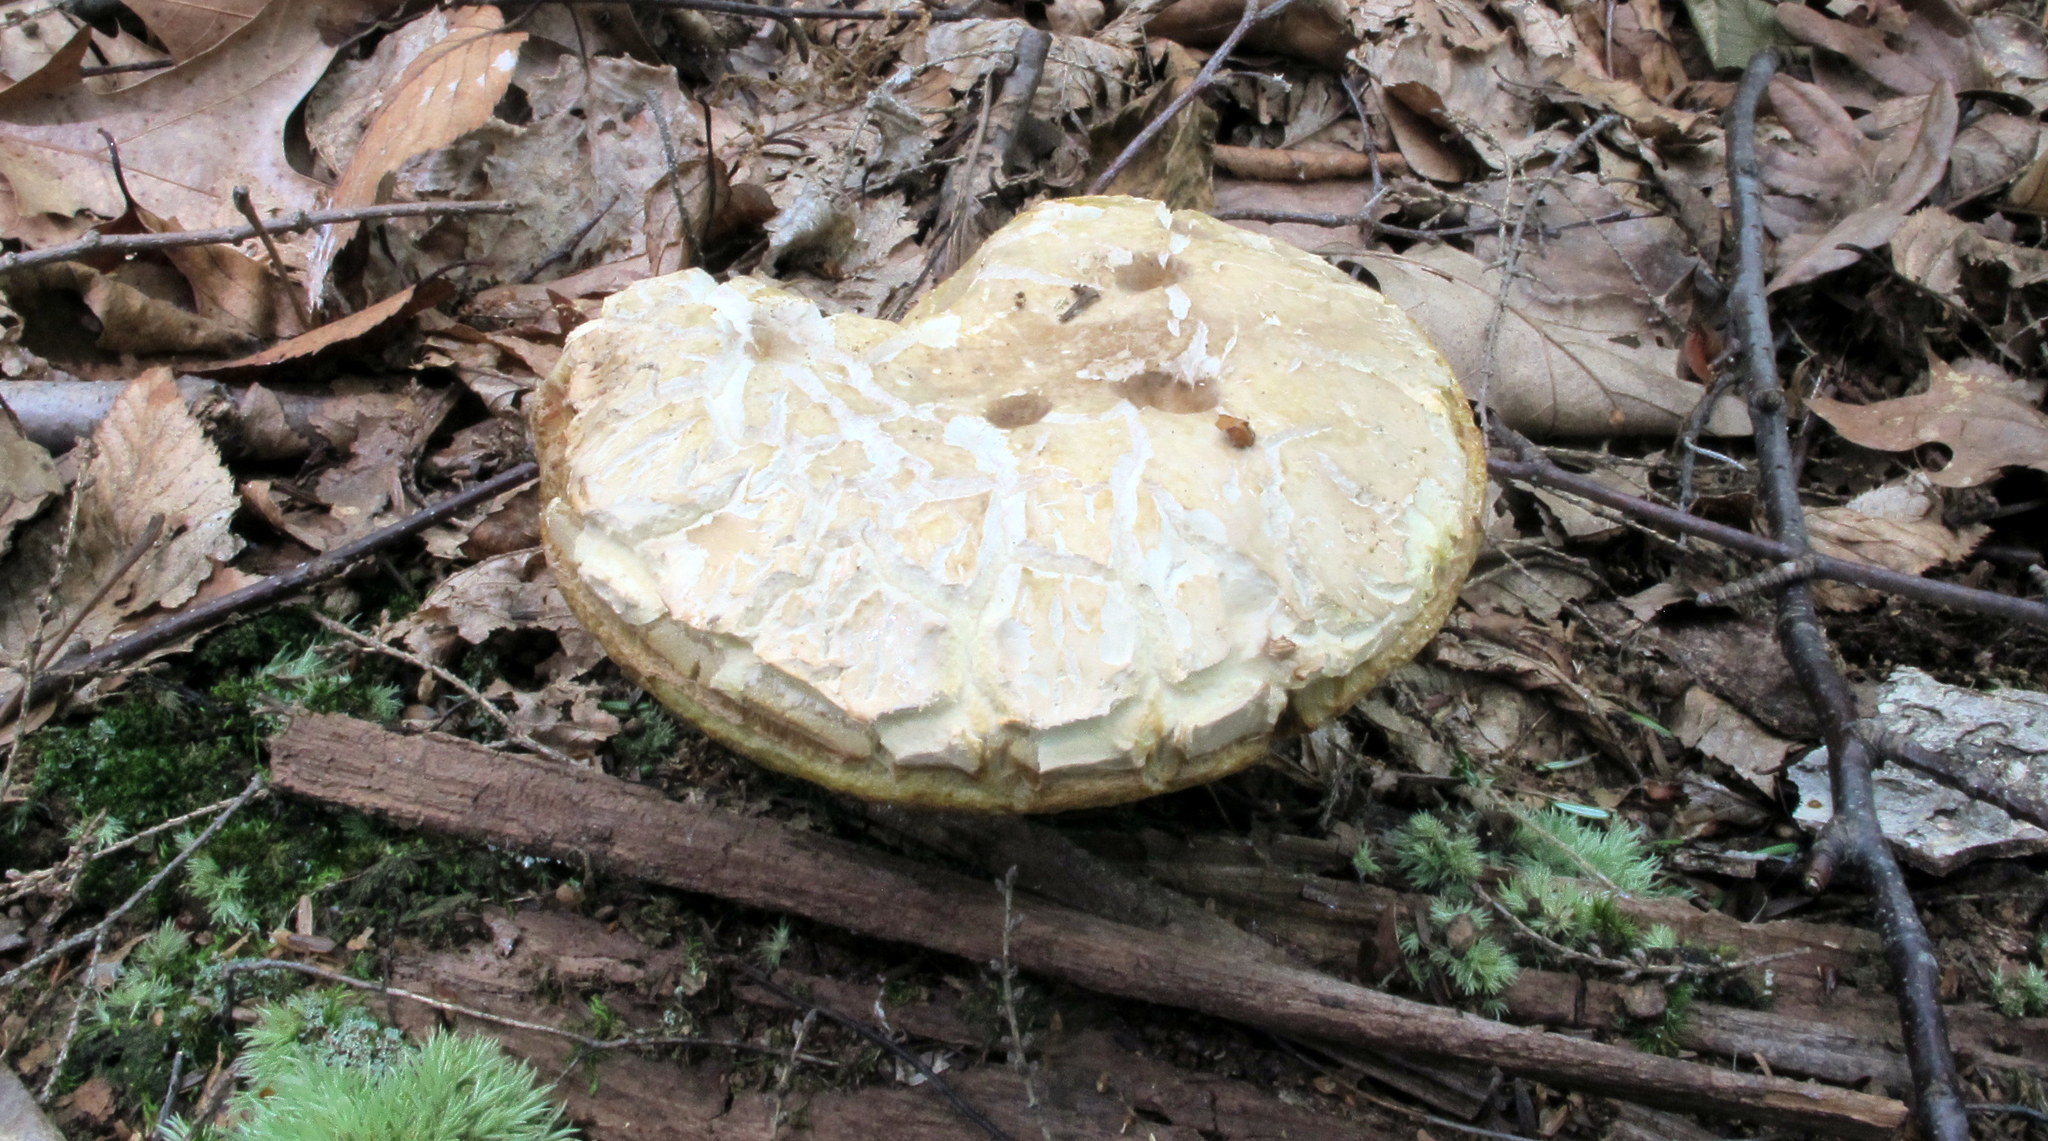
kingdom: Fungi
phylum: Basidiomycota
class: Agaricomycetes
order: Boletales
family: Boletaceae
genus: Xanthoconium
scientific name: Xanthoconium affine
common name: Spotted bolete
